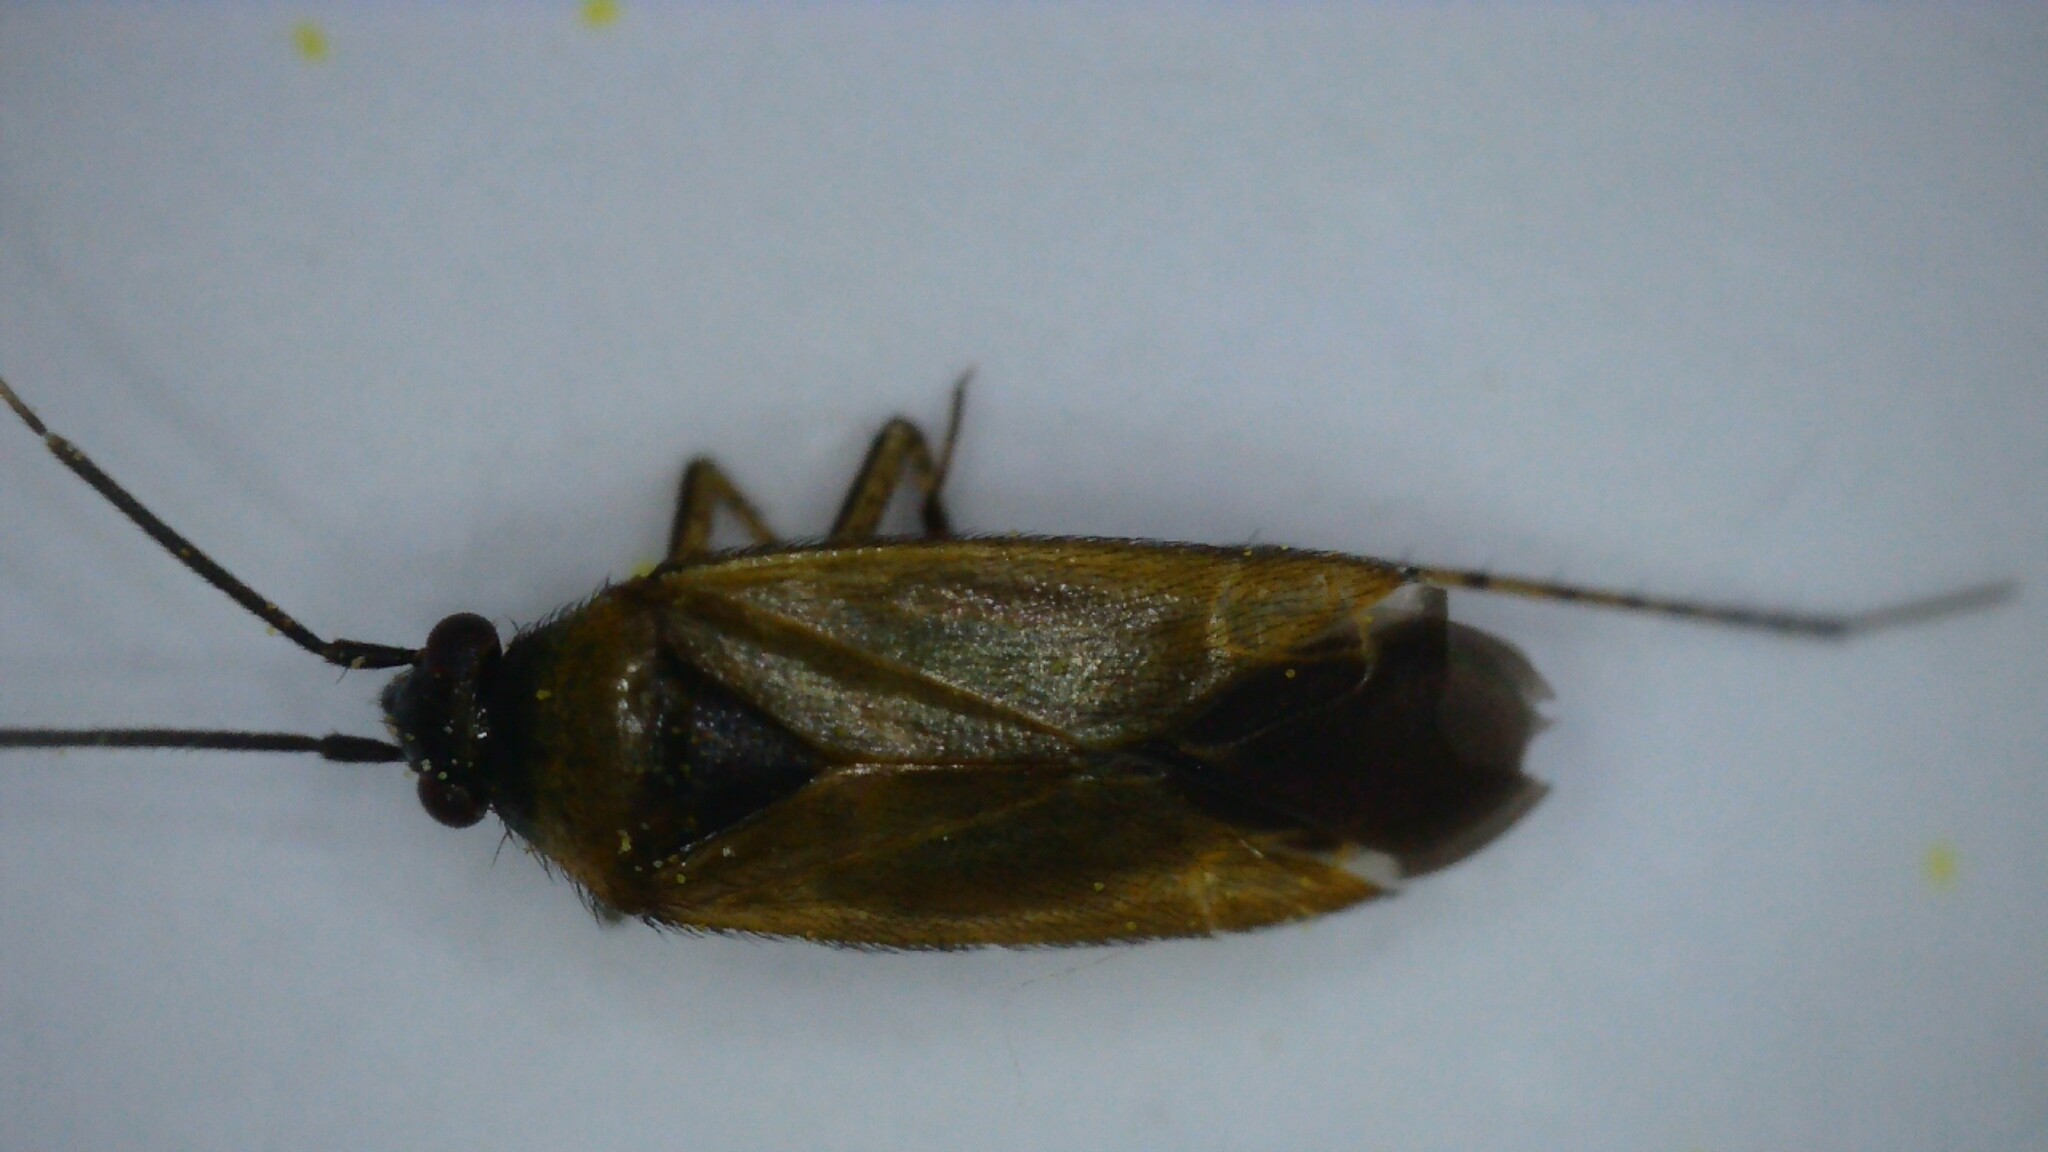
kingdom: Animalia
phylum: Arthropoda
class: Insecta
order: Hemiptera
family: Miridae
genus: Plagiognathus
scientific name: Plagiognathus arbustorum
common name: Plant bug
